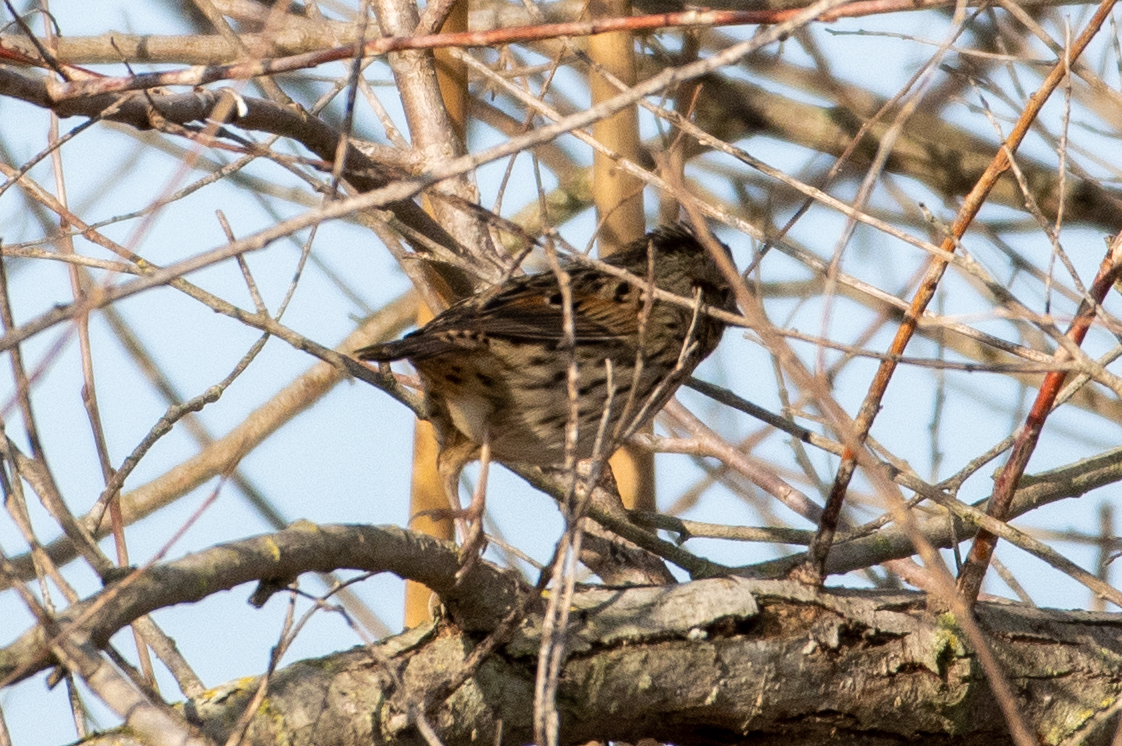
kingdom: Animalia
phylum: Chordata
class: Aves
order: Passeriformes
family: Passerellidae
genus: Melospiza
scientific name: Melospiza lincolnii
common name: Lincoln's sparrow
